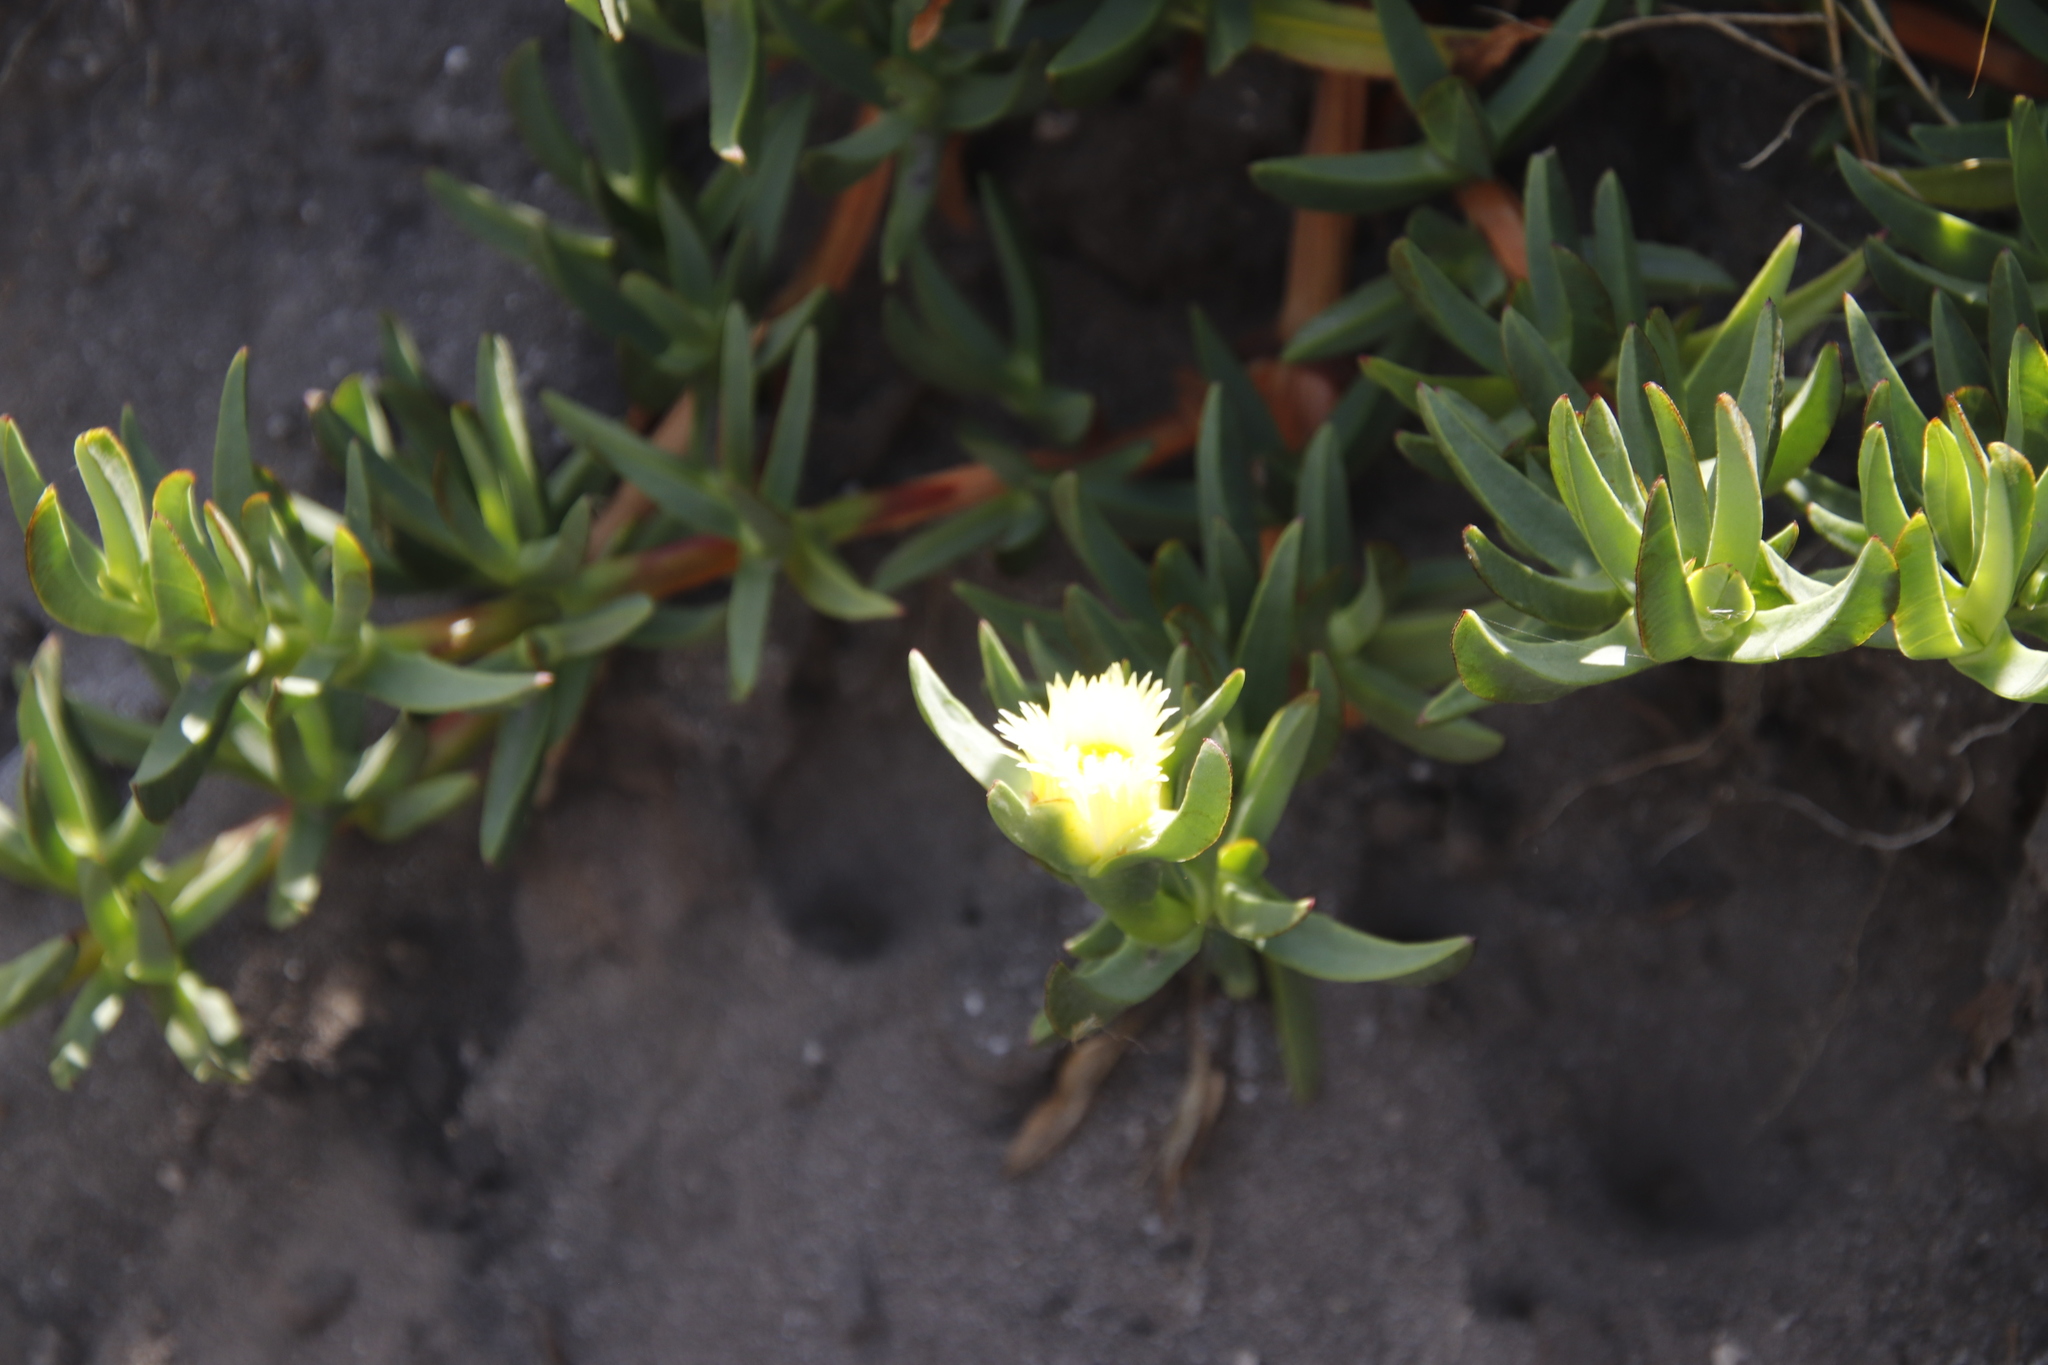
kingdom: Plantae
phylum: Tracheophyta
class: Magnoliopsida
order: Caryophyllales
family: Aizoaceae
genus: Carpobrotus
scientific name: Carpobrotus edulis
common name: Hottentot-fig
